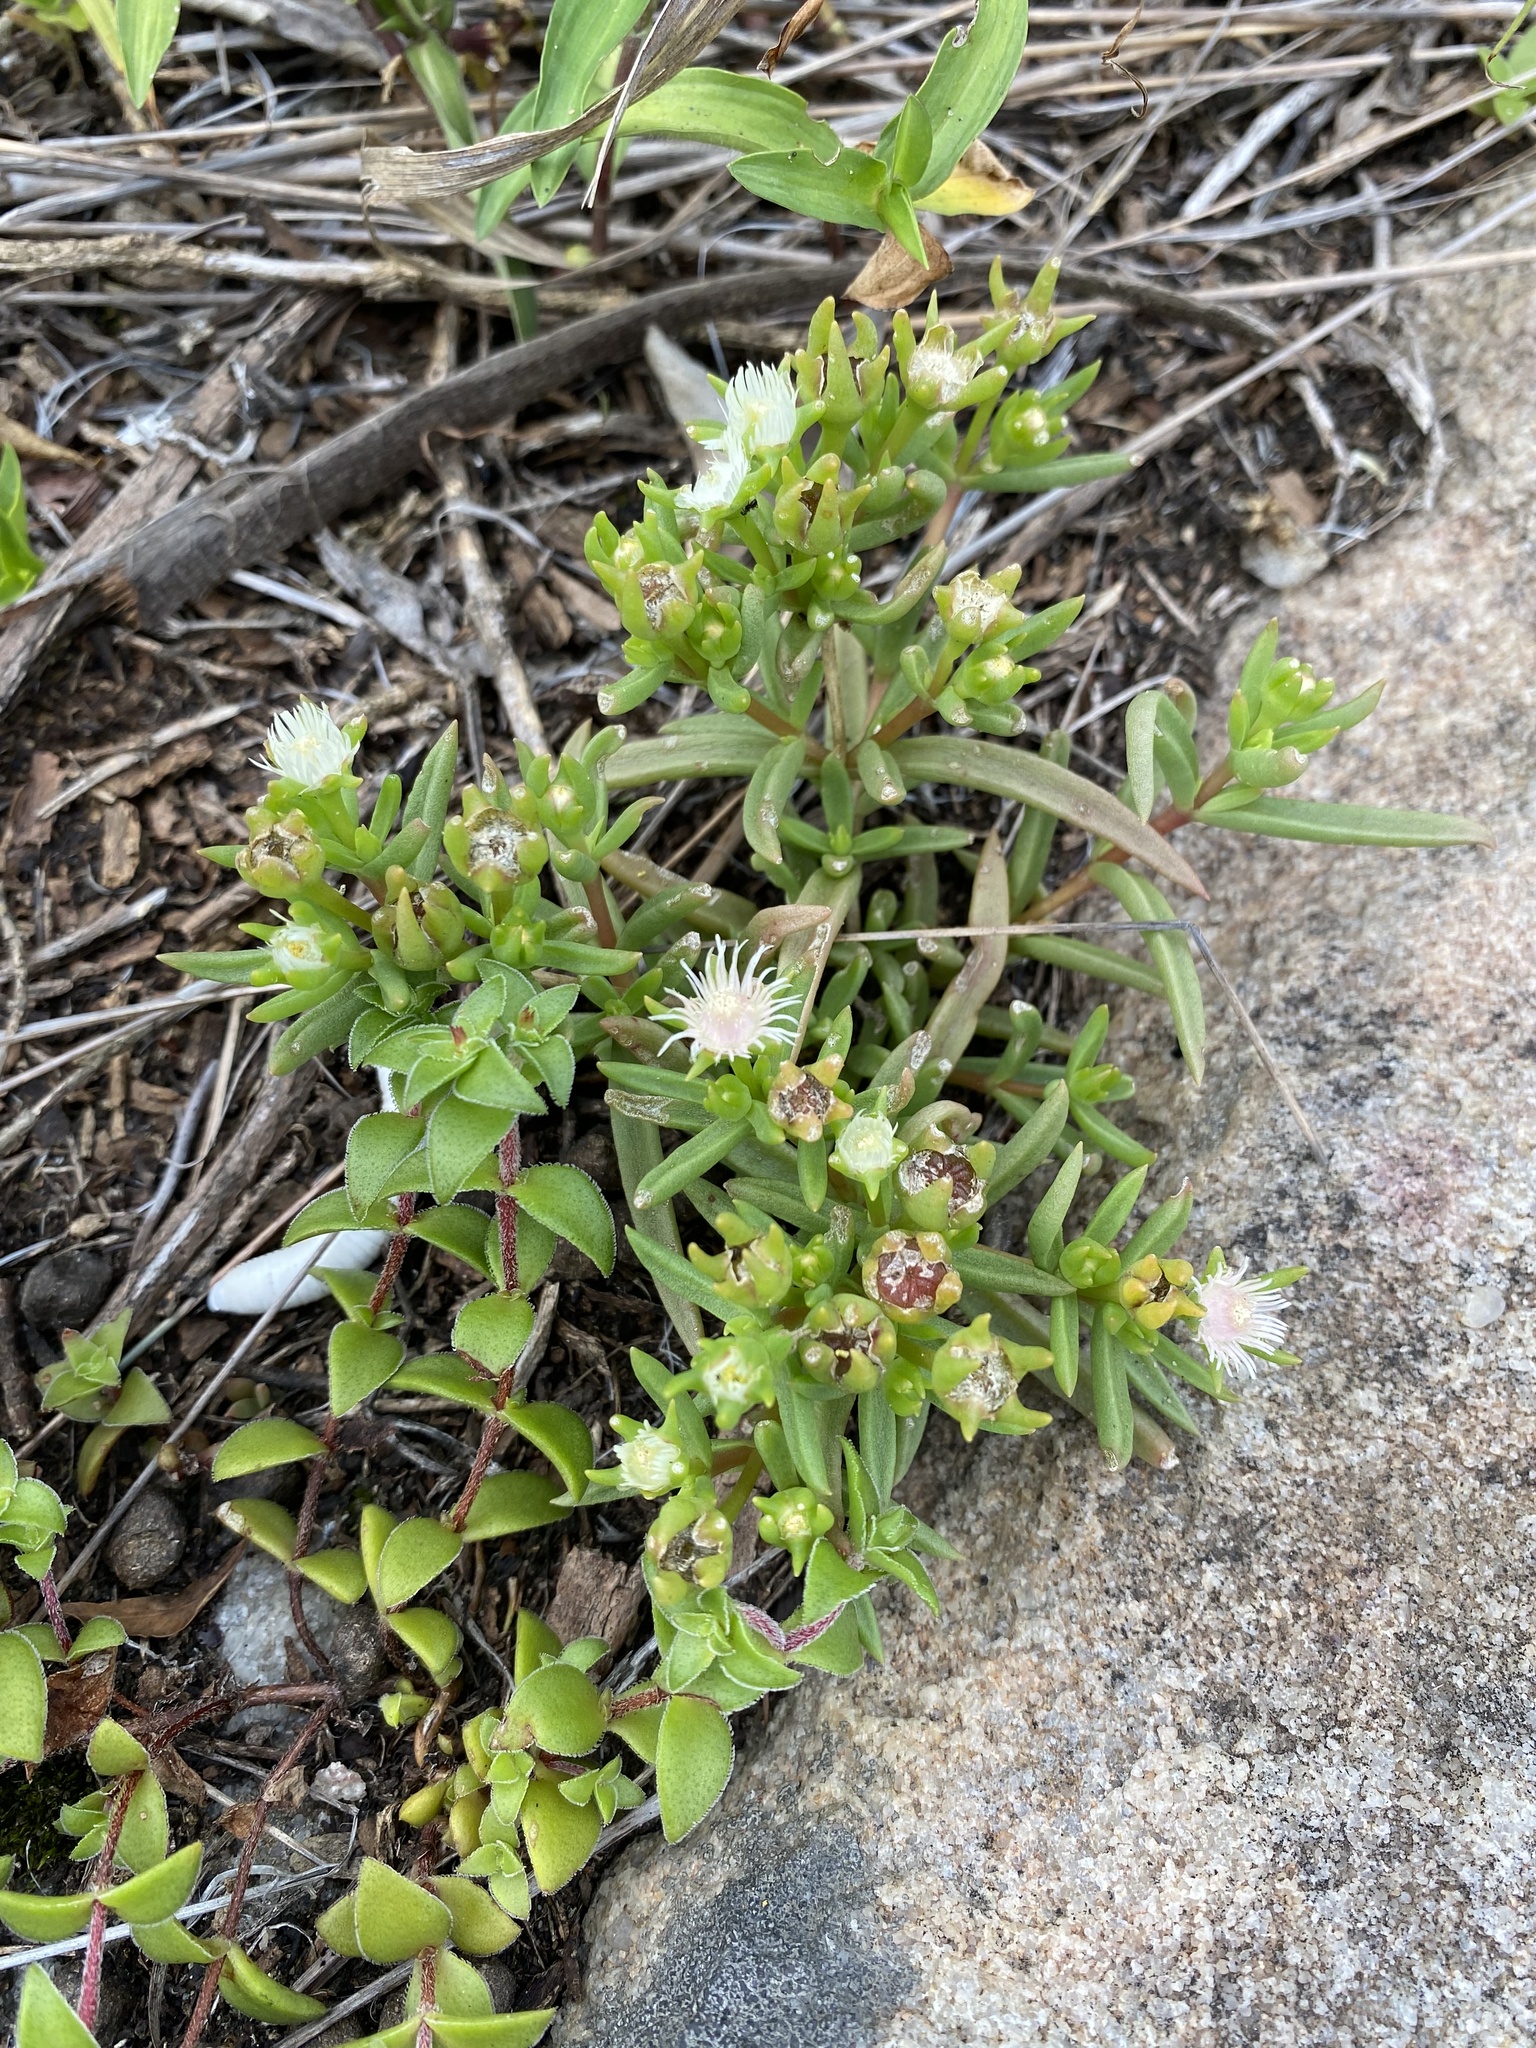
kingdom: Plantae
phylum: Tracheophyta
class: Magnoliopsida
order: Caryophyllales
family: Aizoaceae
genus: Delosperma
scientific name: Delosperma lineare
